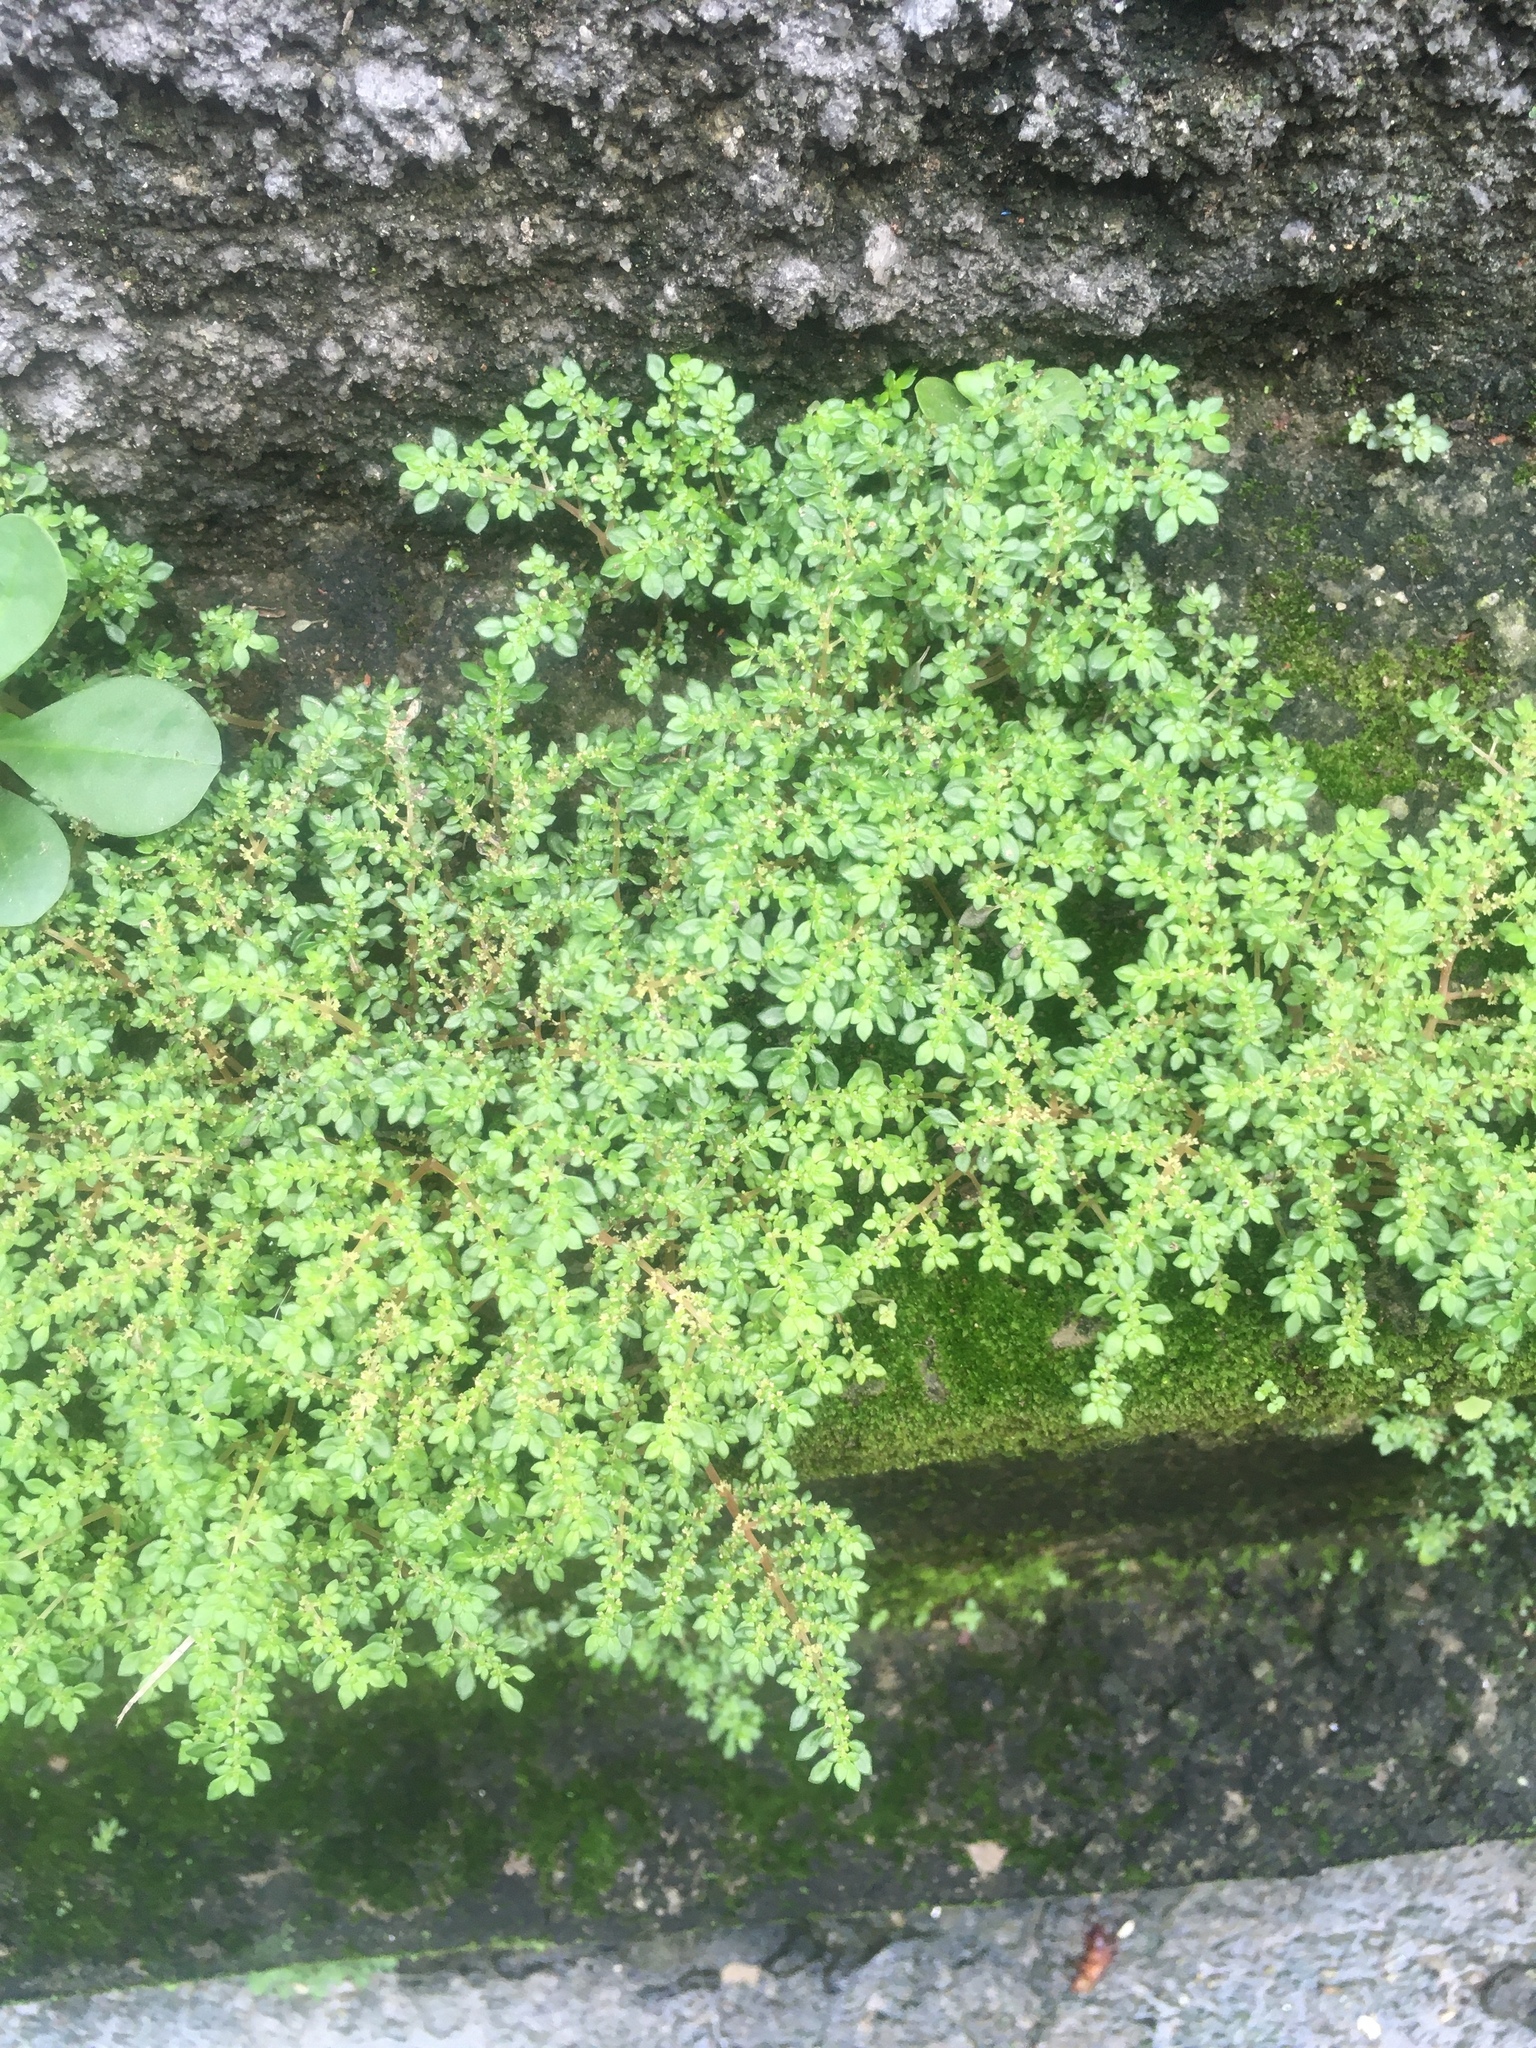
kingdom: Plantae
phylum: Tracheophyta
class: Magnoliopsida
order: Rosales
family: Urticaceae
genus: Pilea
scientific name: Pilea microphylla
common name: Artillery-plant
